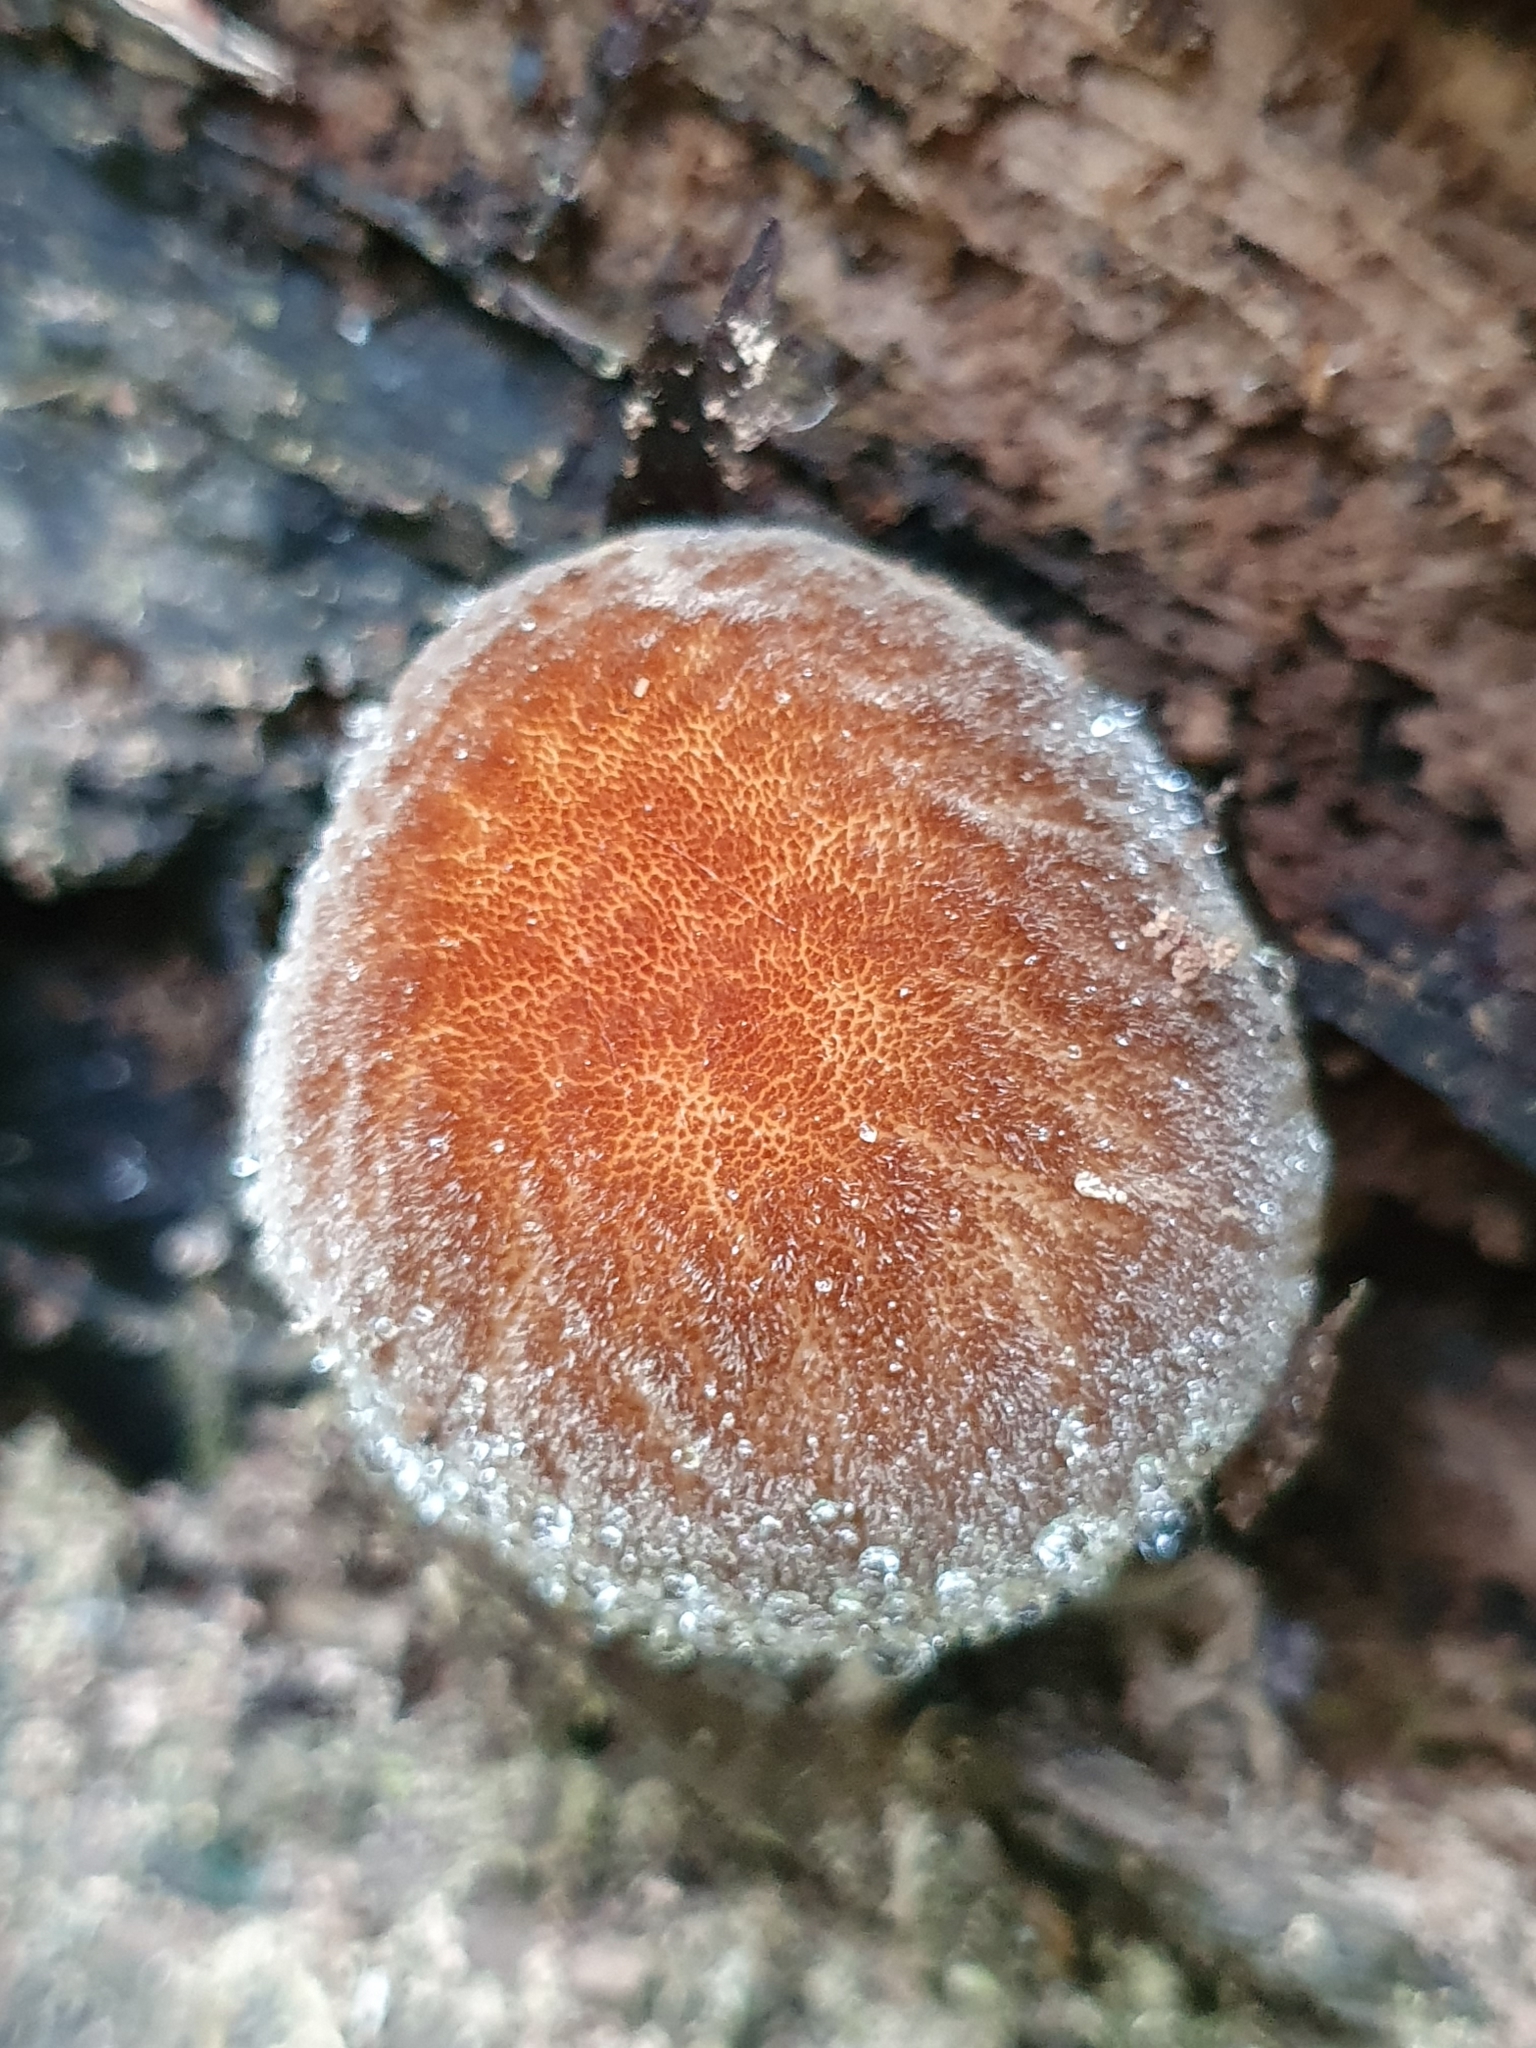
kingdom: Fungi
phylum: Basidiomycota
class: Agaricomycetes
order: Agaricales
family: Pluteaceae
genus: Pluteus
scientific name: Pluteus umbrosus
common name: Velvet shield
